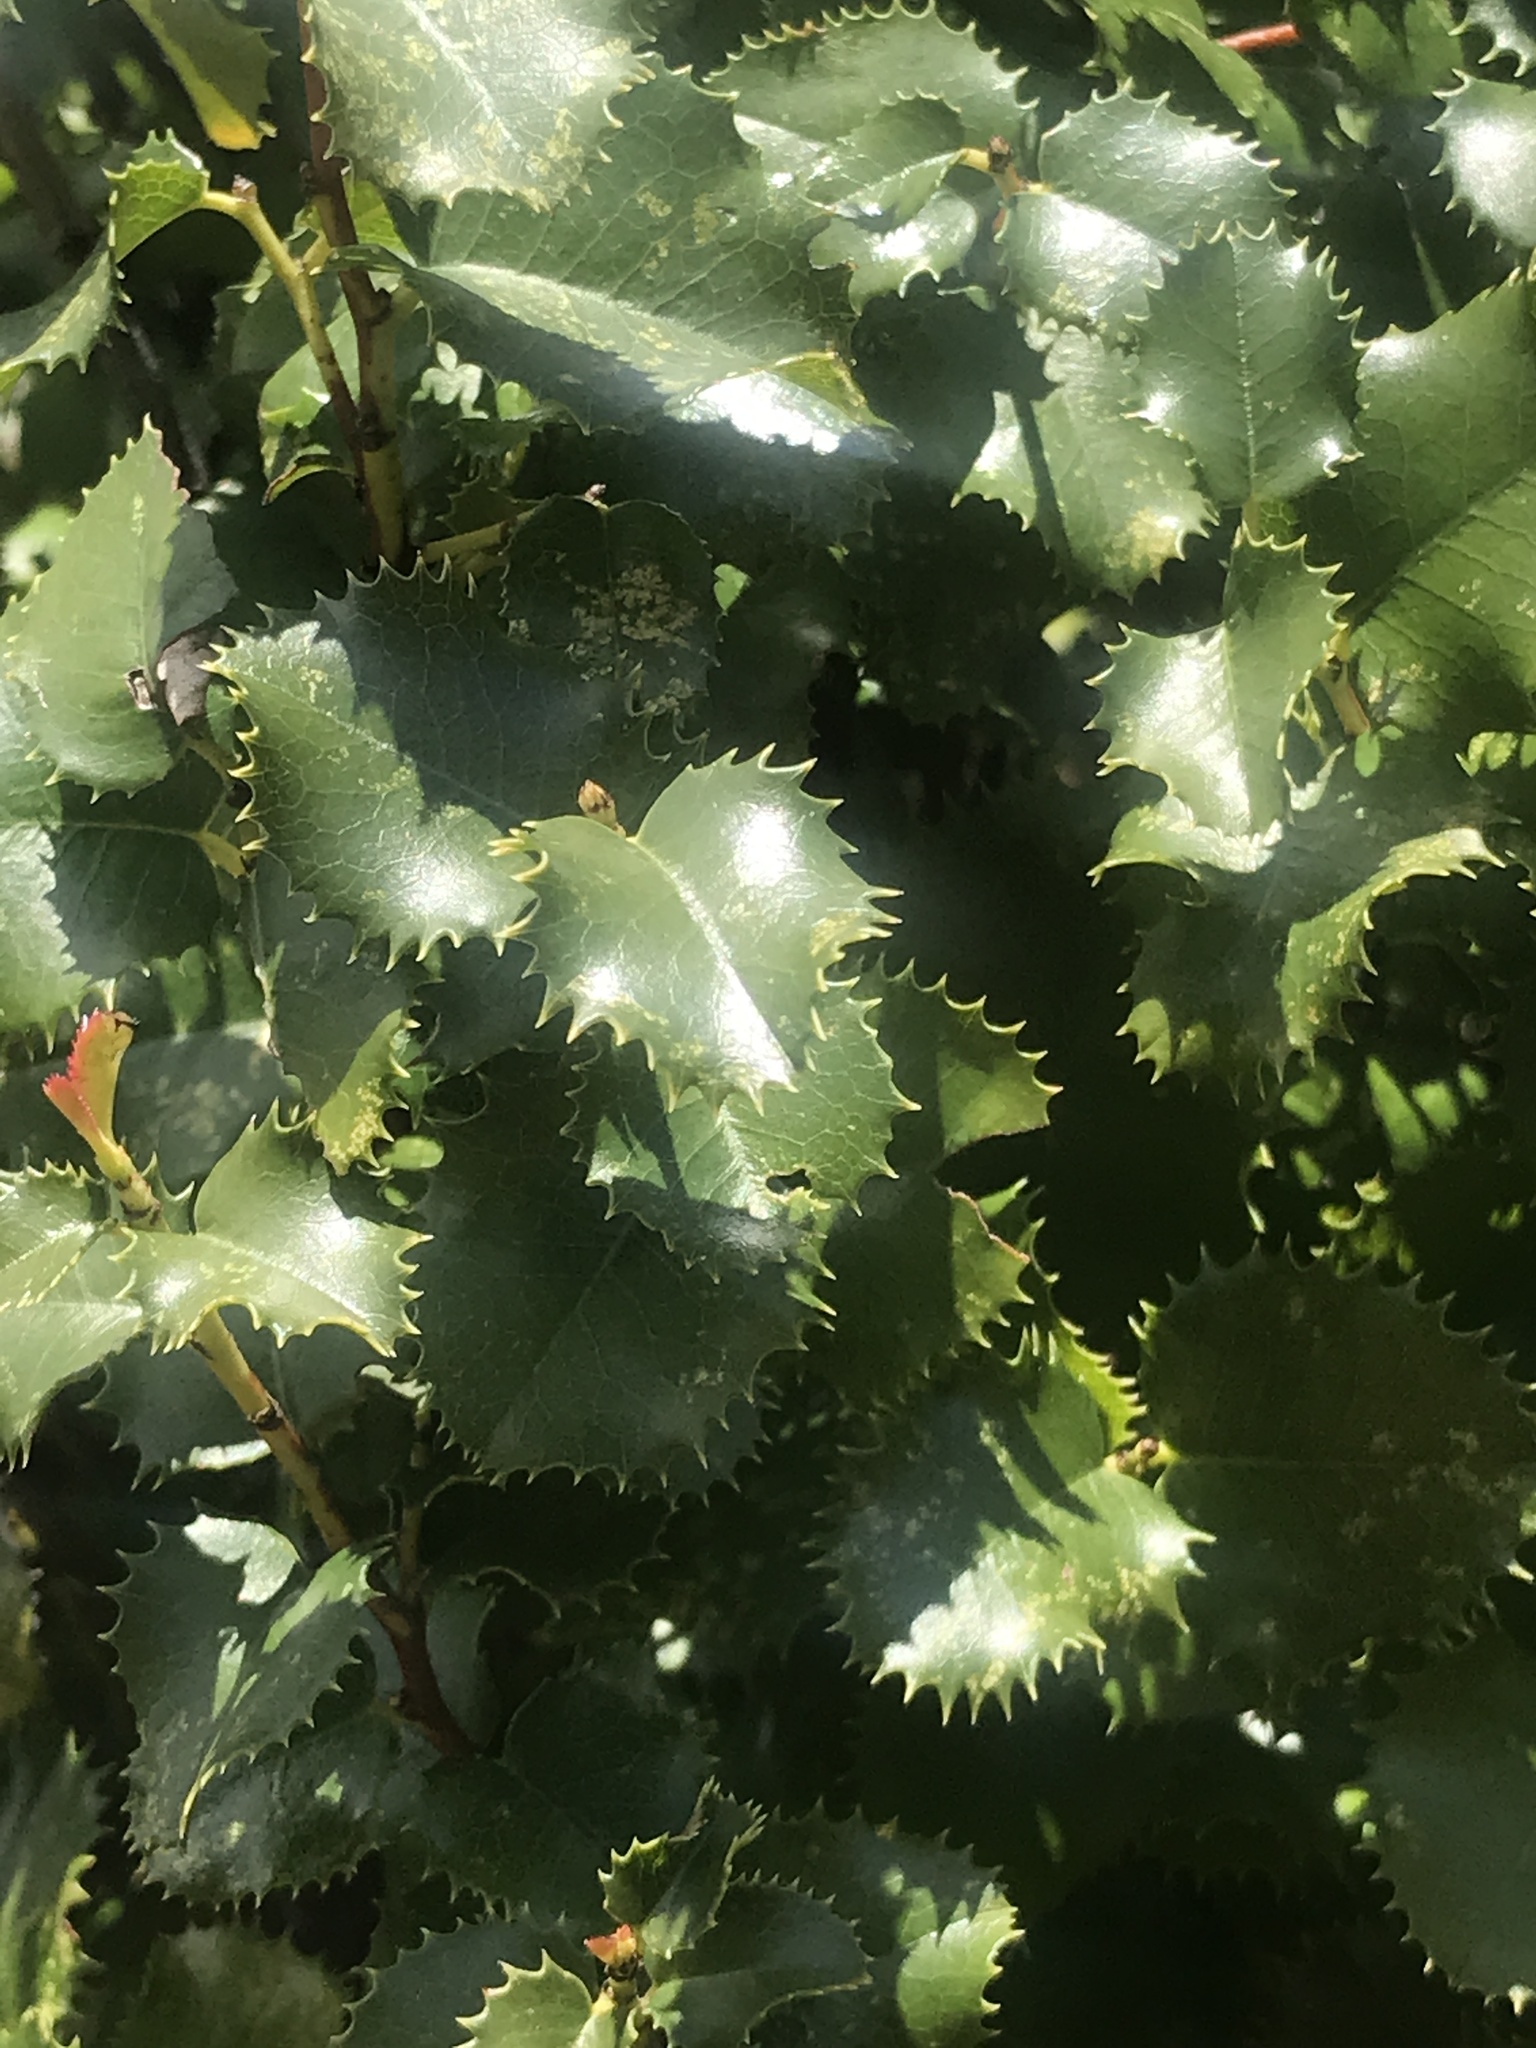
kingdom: Plantae
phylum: Tracheophyta
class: Magnoliopsida
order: Rosales
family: Rosaceae
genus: Prunus
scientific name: Prunus ilicifolia
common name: Hollyleaf cherry
